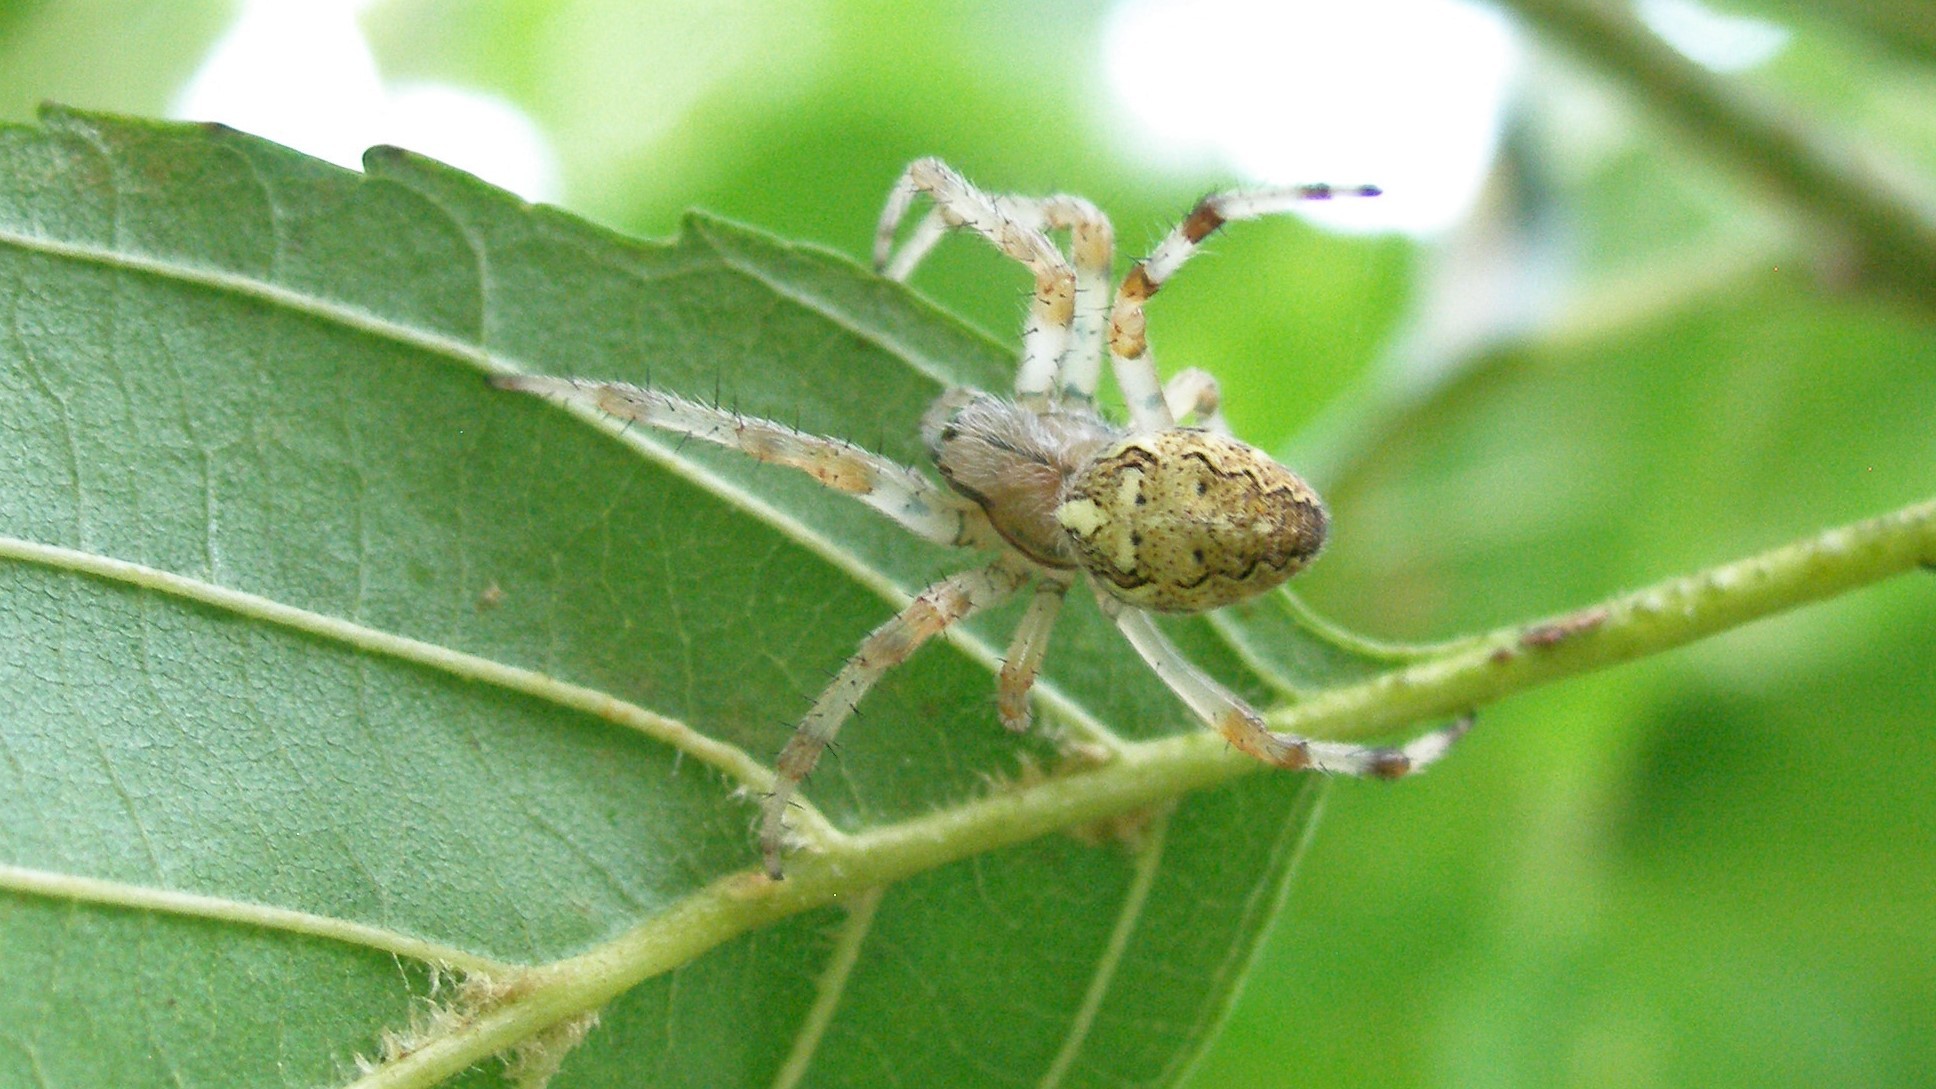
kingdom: Animalia
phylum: Arthropoda
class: Arachnida
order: Araneae
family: Araneidae
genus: Araneus
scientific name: Araneus marmoreus
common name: Marbled orbweaver
